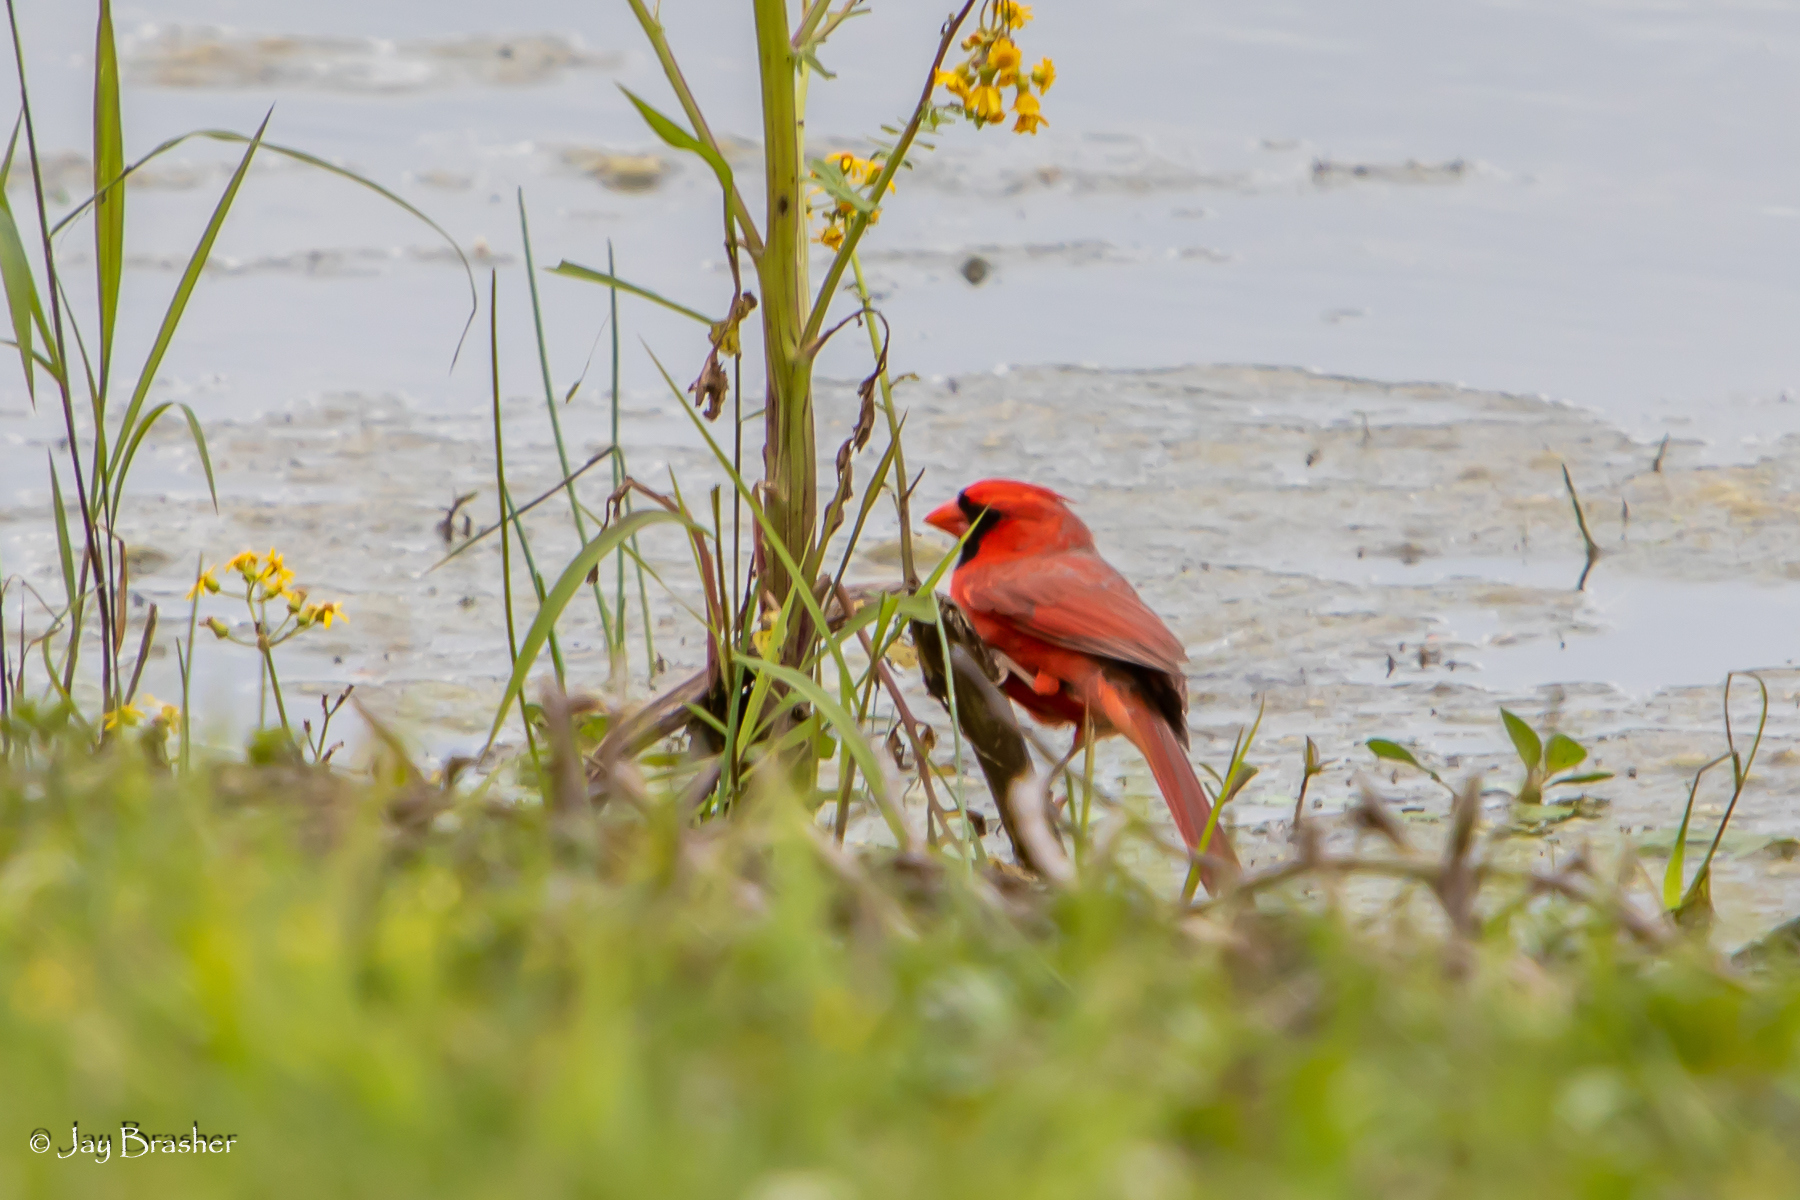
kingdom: Animalia
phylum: Chordata
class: Aves
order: Passeriformes
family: Cardinalidae
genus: Cardinalis
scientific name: Cardinalis cardinalis
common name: Northern cardinal
